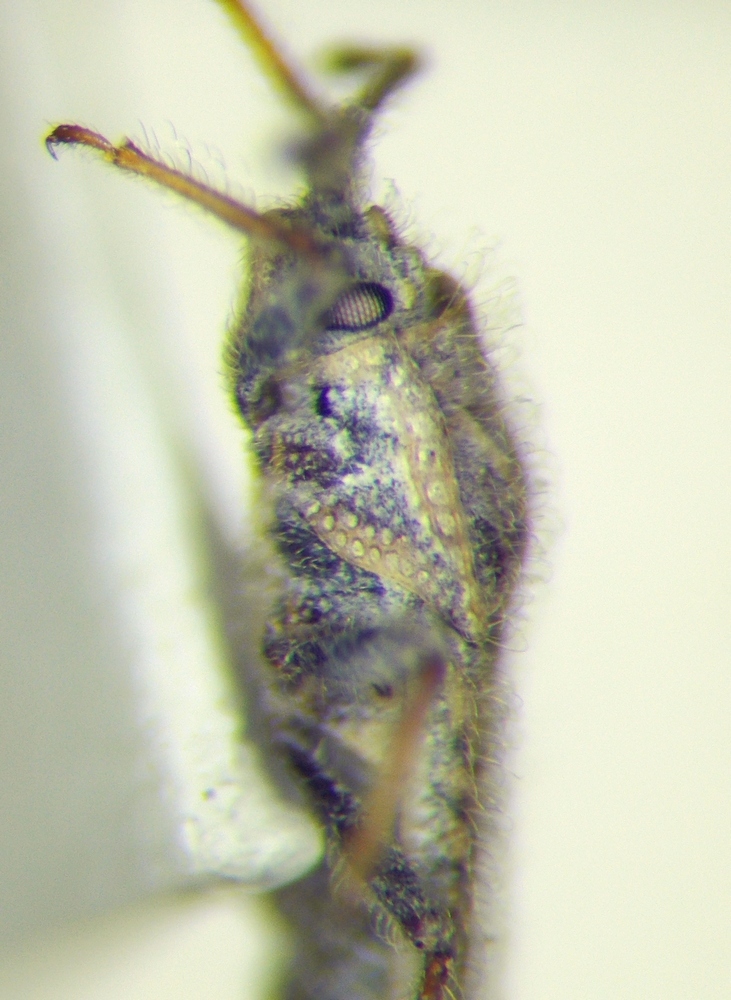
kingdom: Animalia
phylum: Arthropoda
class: Insecta
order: Hemiptera
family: Tingidae
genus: Tingis
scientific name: Tingis pauperata
